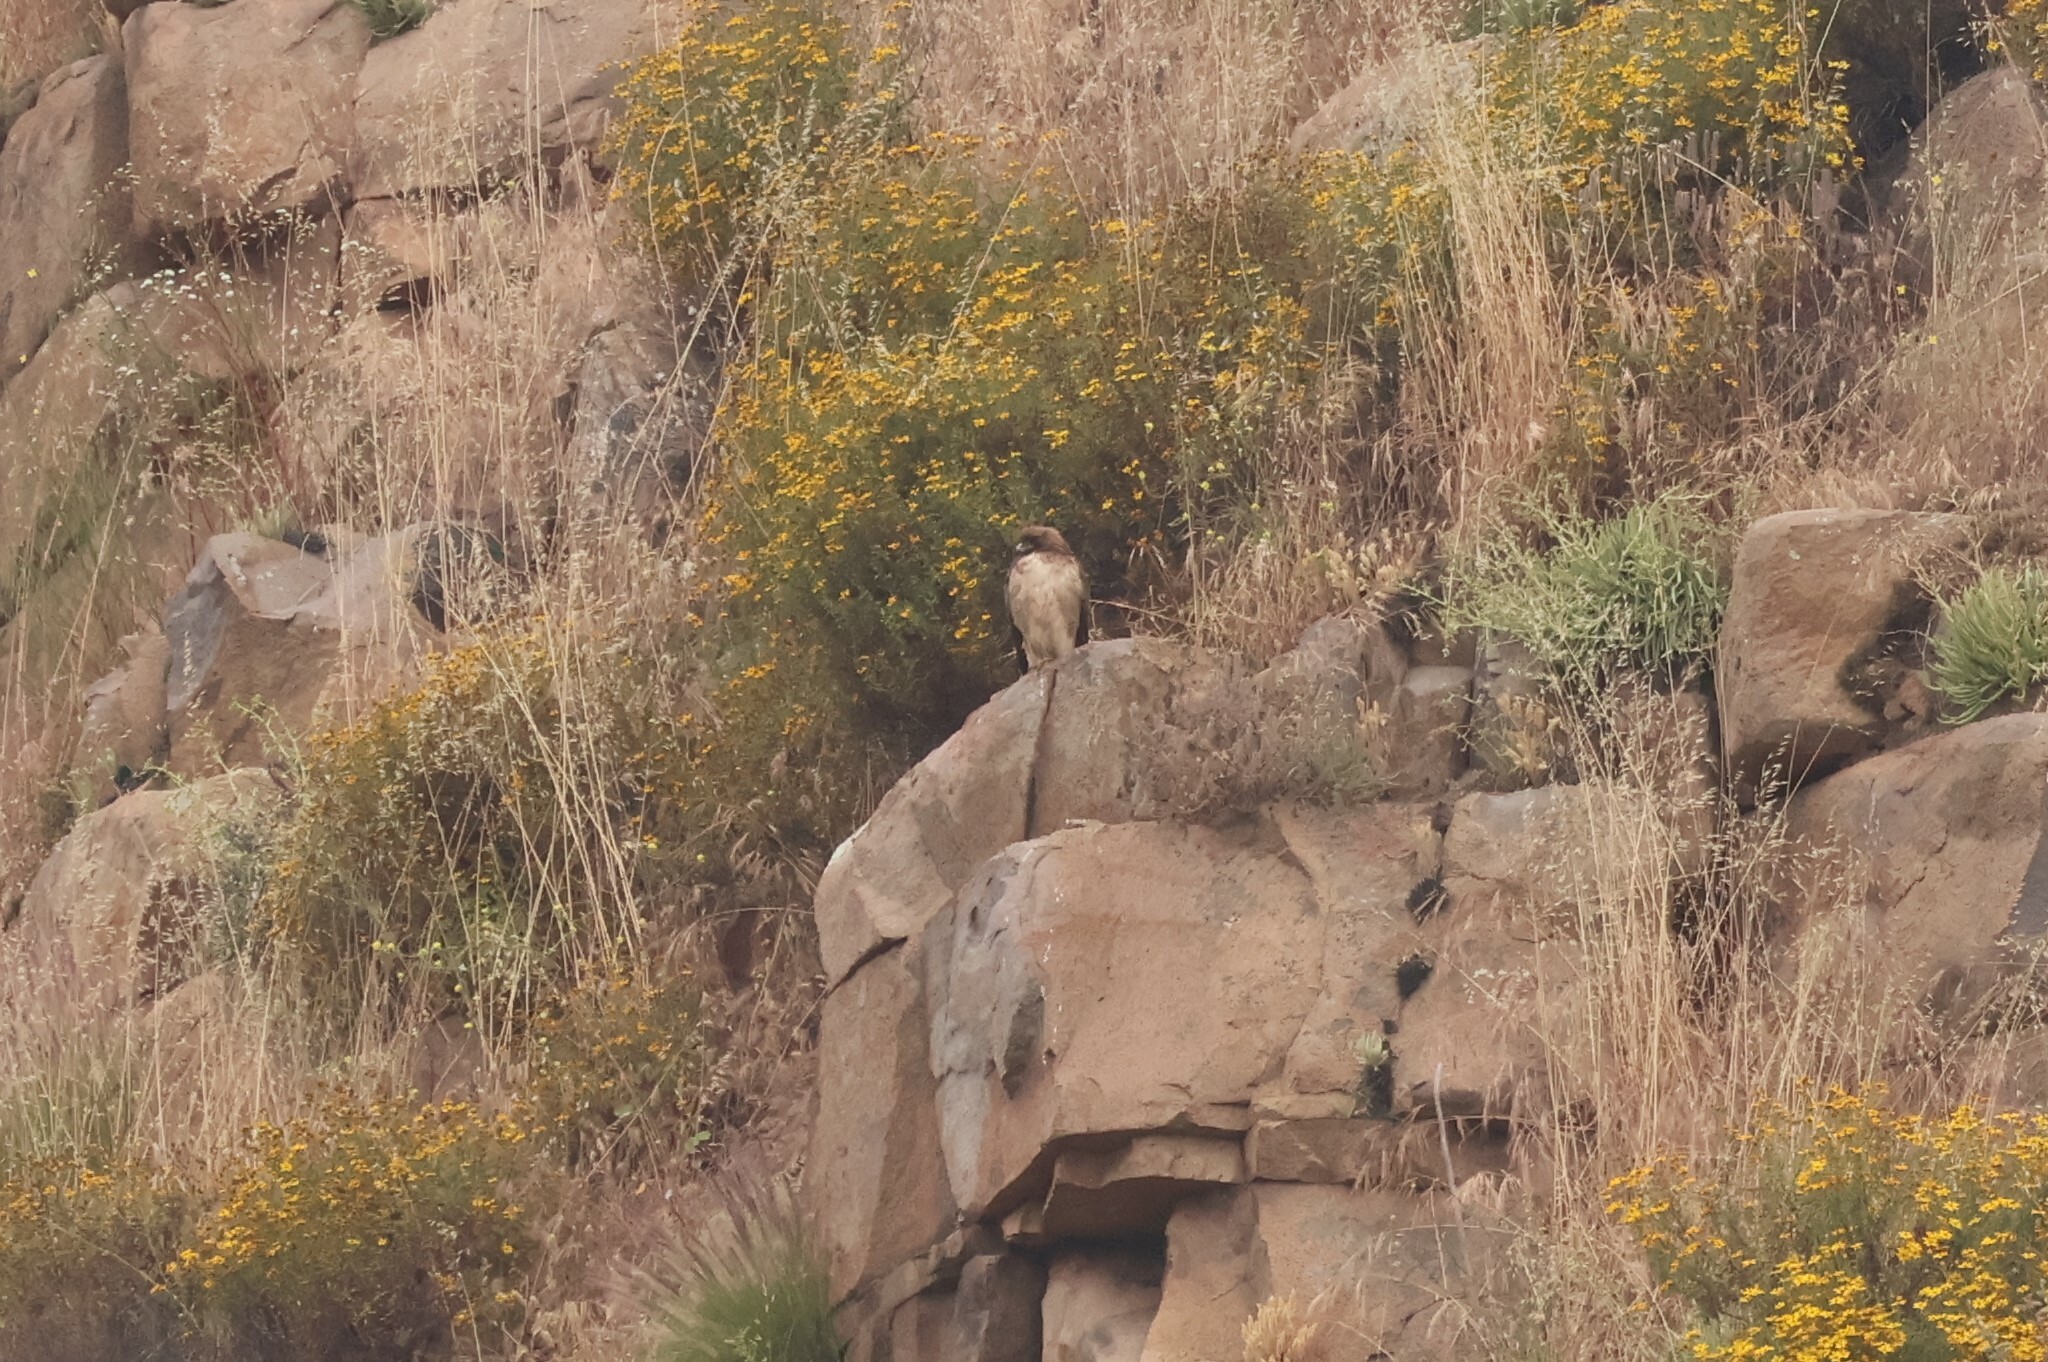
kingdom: Animalia
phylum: Chordata
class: Aves
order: Accipitriformes
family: Accipitridae
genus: Buteo
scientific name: Buteo jamaicensis
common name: Red-tailed hawk
